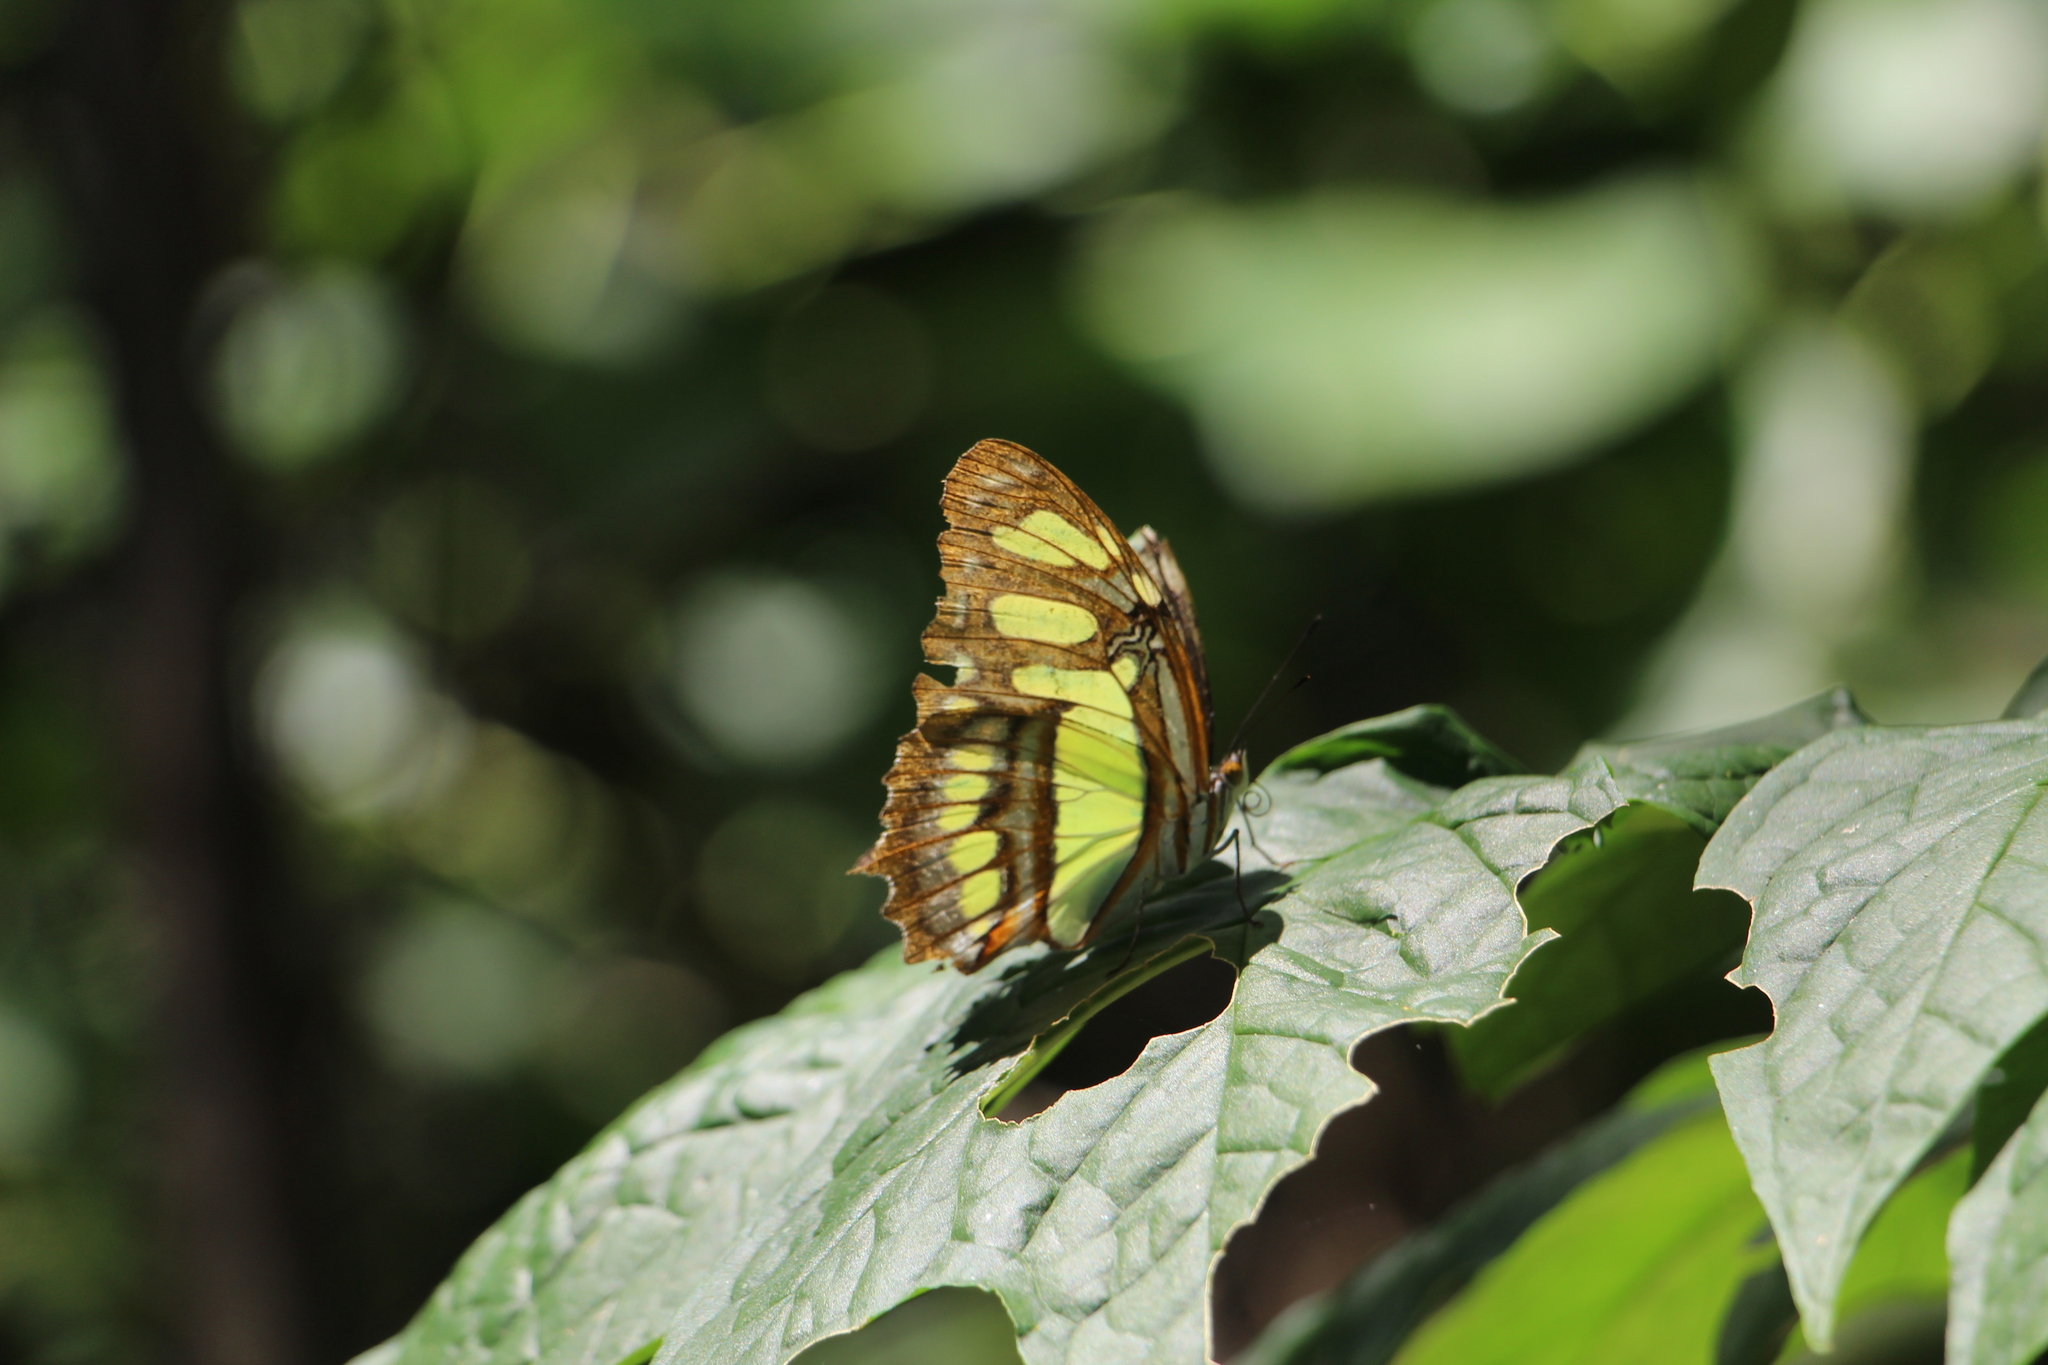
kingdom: Animalia
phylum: Arthropoda
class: Insecta
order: Lepidoptera
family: Nymphalidae
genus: Siproeta
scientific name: Siproeta stelenes
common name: Malachite
